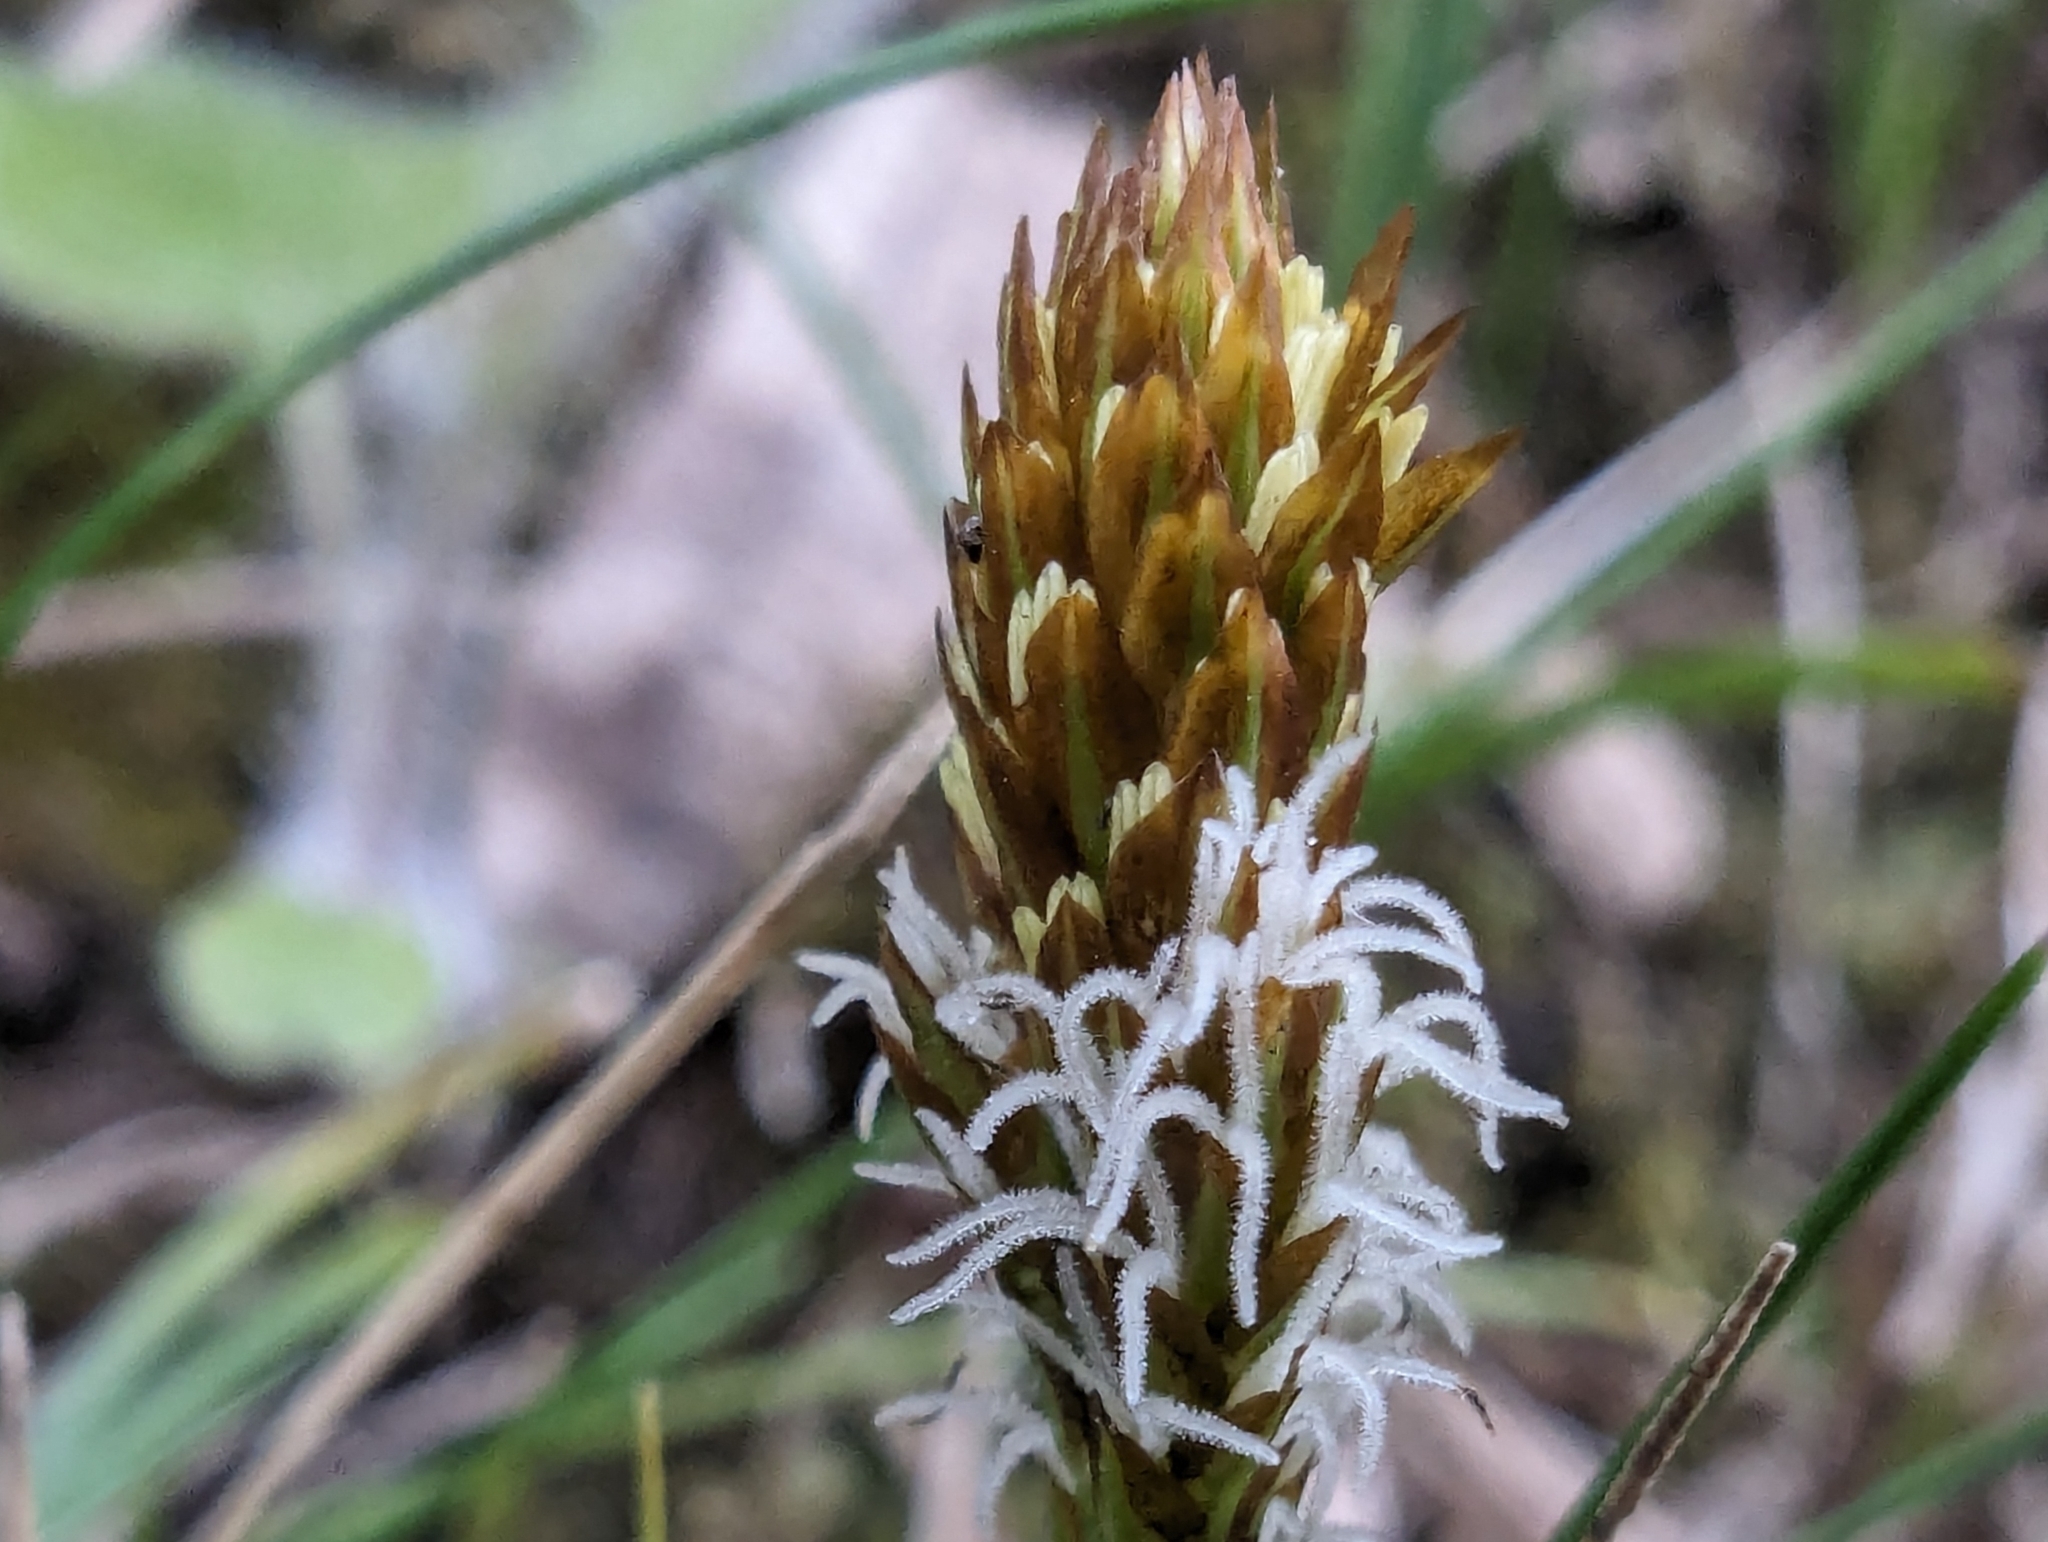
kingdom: Plantae
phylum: Tracheophyta
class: Liliopsida
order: Poales
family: Cyperaceae
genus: Carex
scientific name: Carex caryophyllea
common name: Spring sedge
